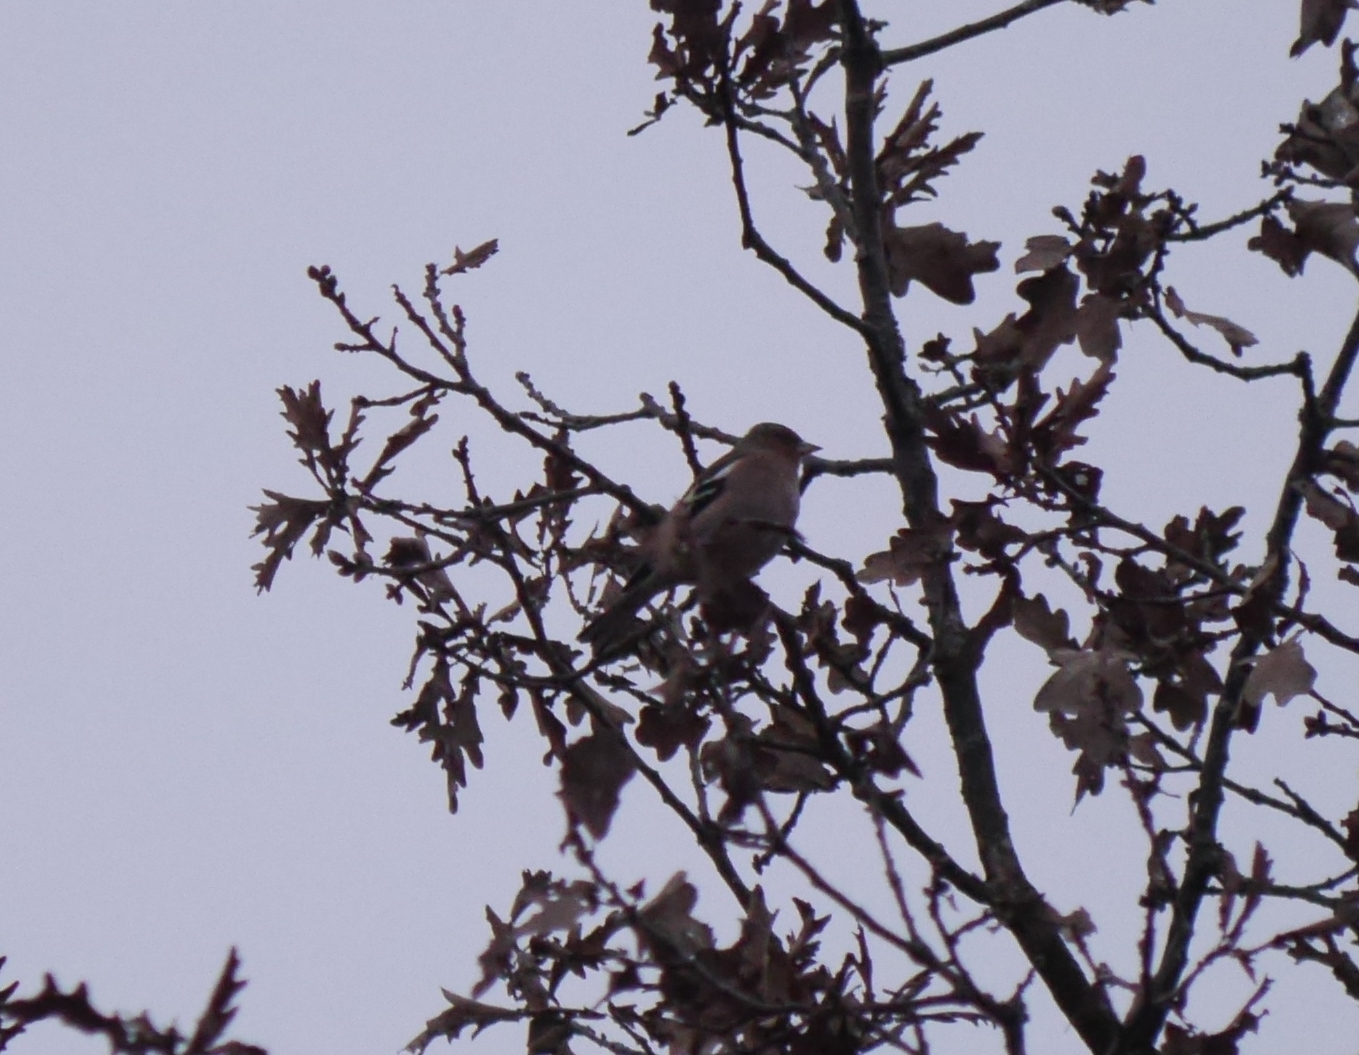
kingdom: Animalia
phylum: Chordata
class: Aves
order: Passeriformes
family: Fringillidae
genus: Fringilla
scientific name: Fringilla coelebs
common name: Common chaffinch
